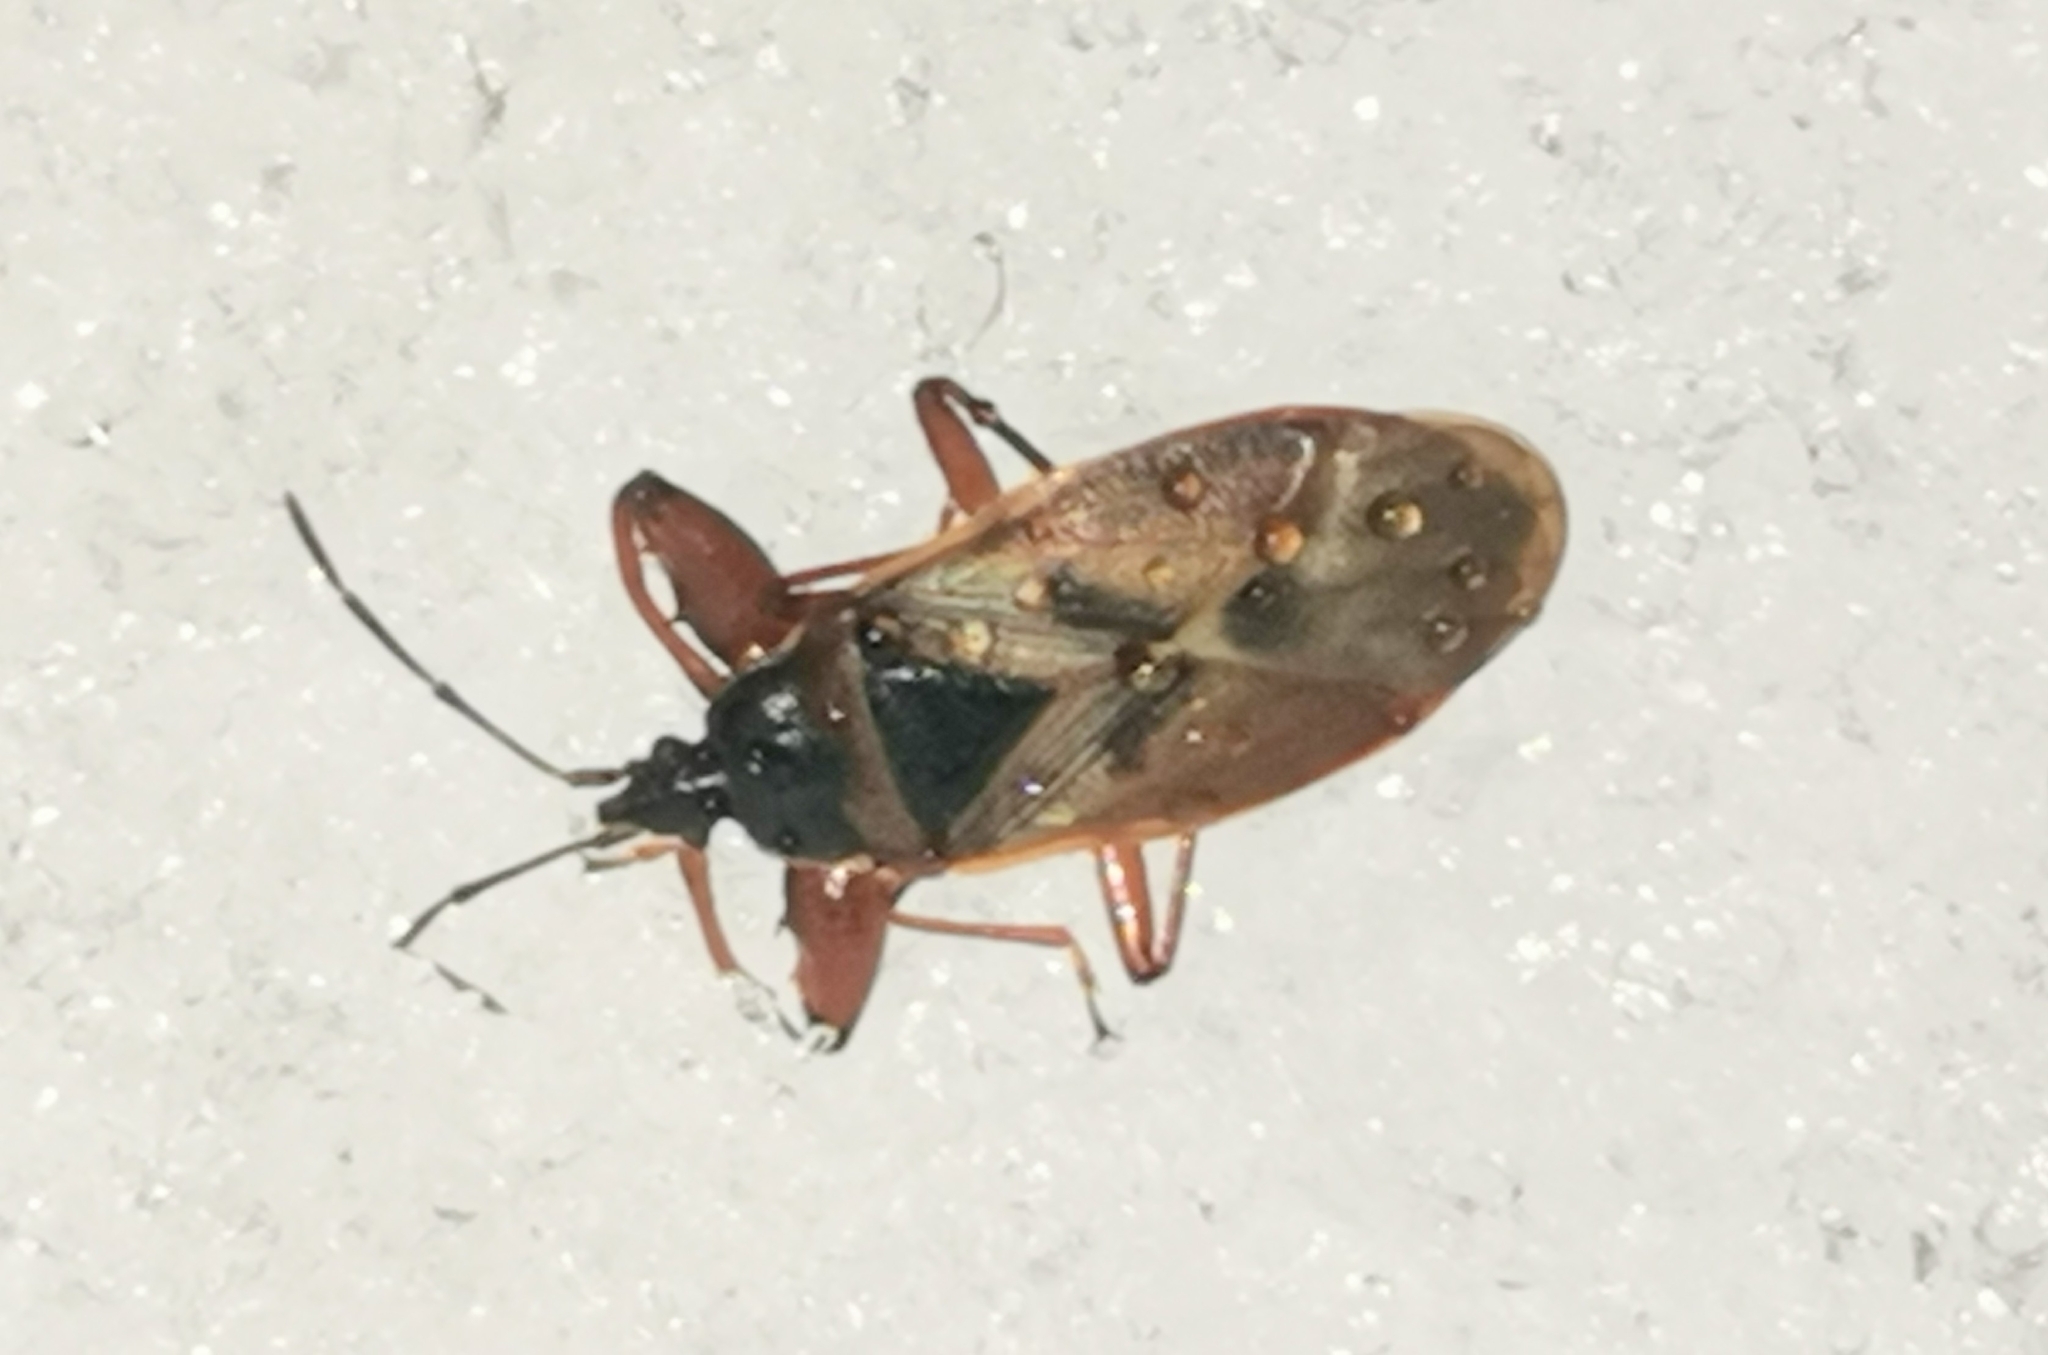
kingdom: Animalia
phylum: Arthropoda
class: Insecta
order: Hemiptera
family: Rhyparochromidae
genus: Gastrodes
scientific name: Gastrodes abietum
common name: Spruce cone bug
